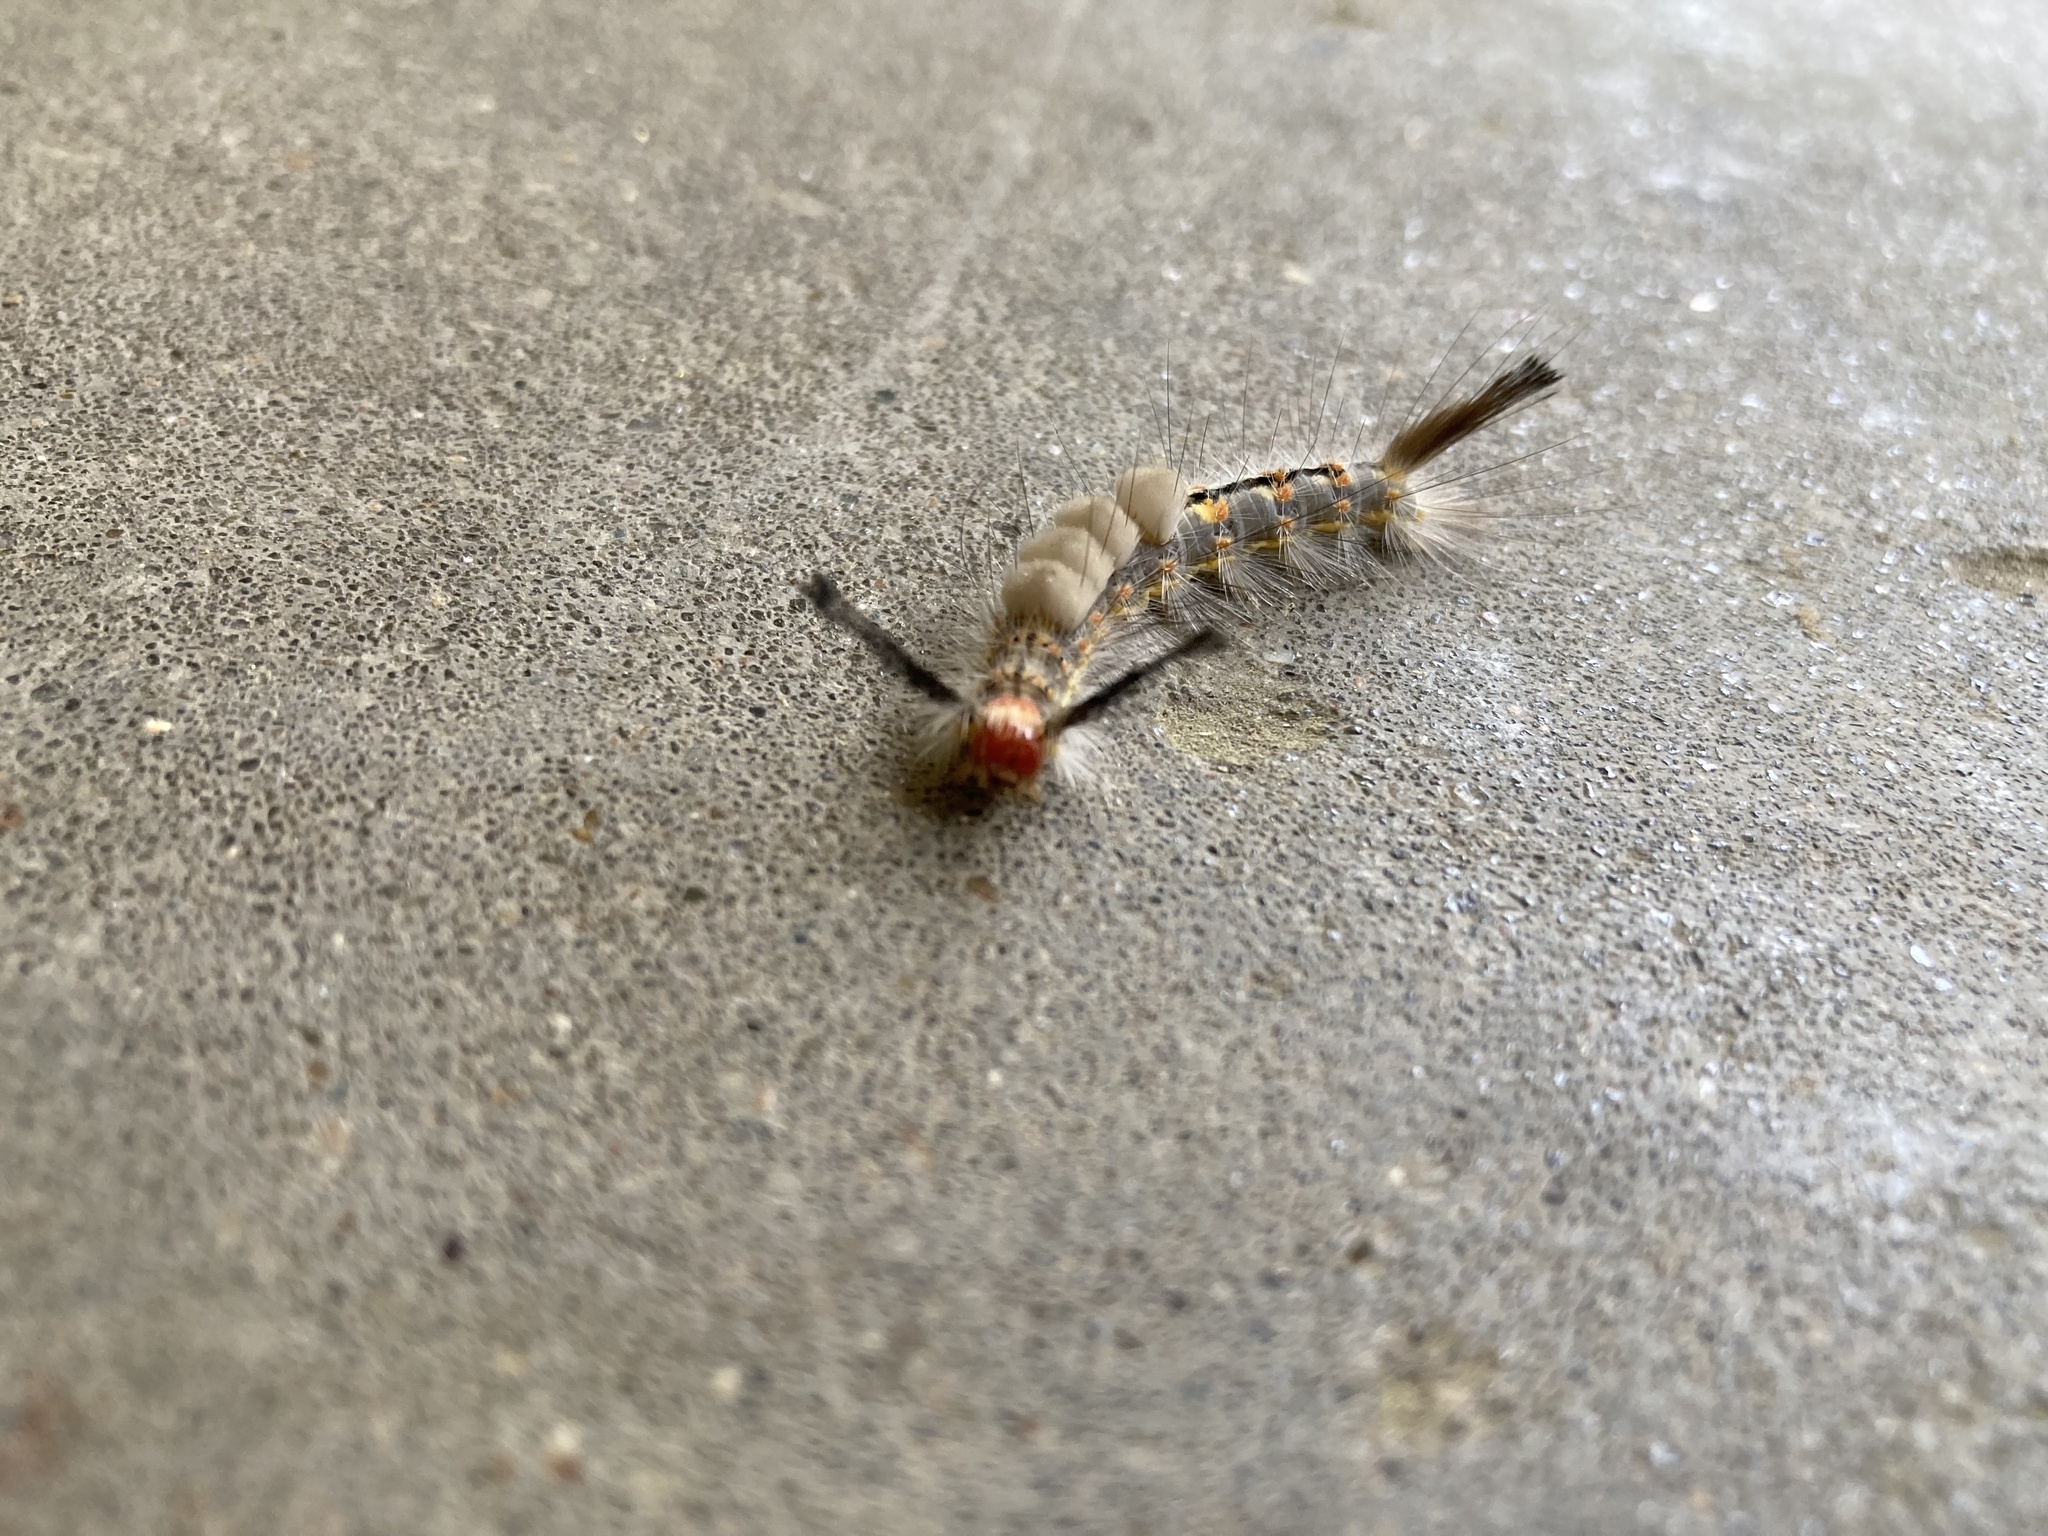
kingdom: Animalia
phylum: Arthropoda
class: Insecta
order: Lepidoptera
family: Erebidae
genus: Orgyia
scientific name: Orgyia detrita
